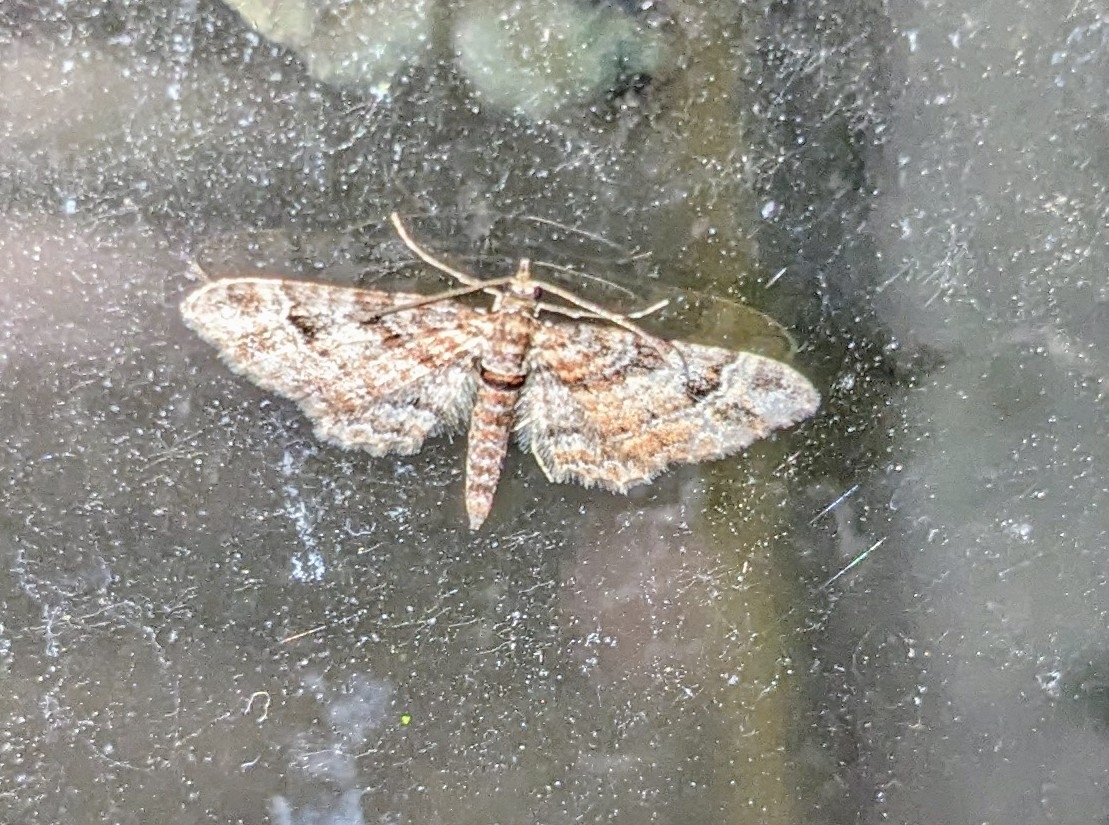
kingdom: Animalia
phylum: Arthropoda
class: Insecta
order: Lepidoptera
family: Geometridae
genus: Gymnoscelis
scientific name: Gymnoscelis rufifasciata
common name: Double-striped pug
